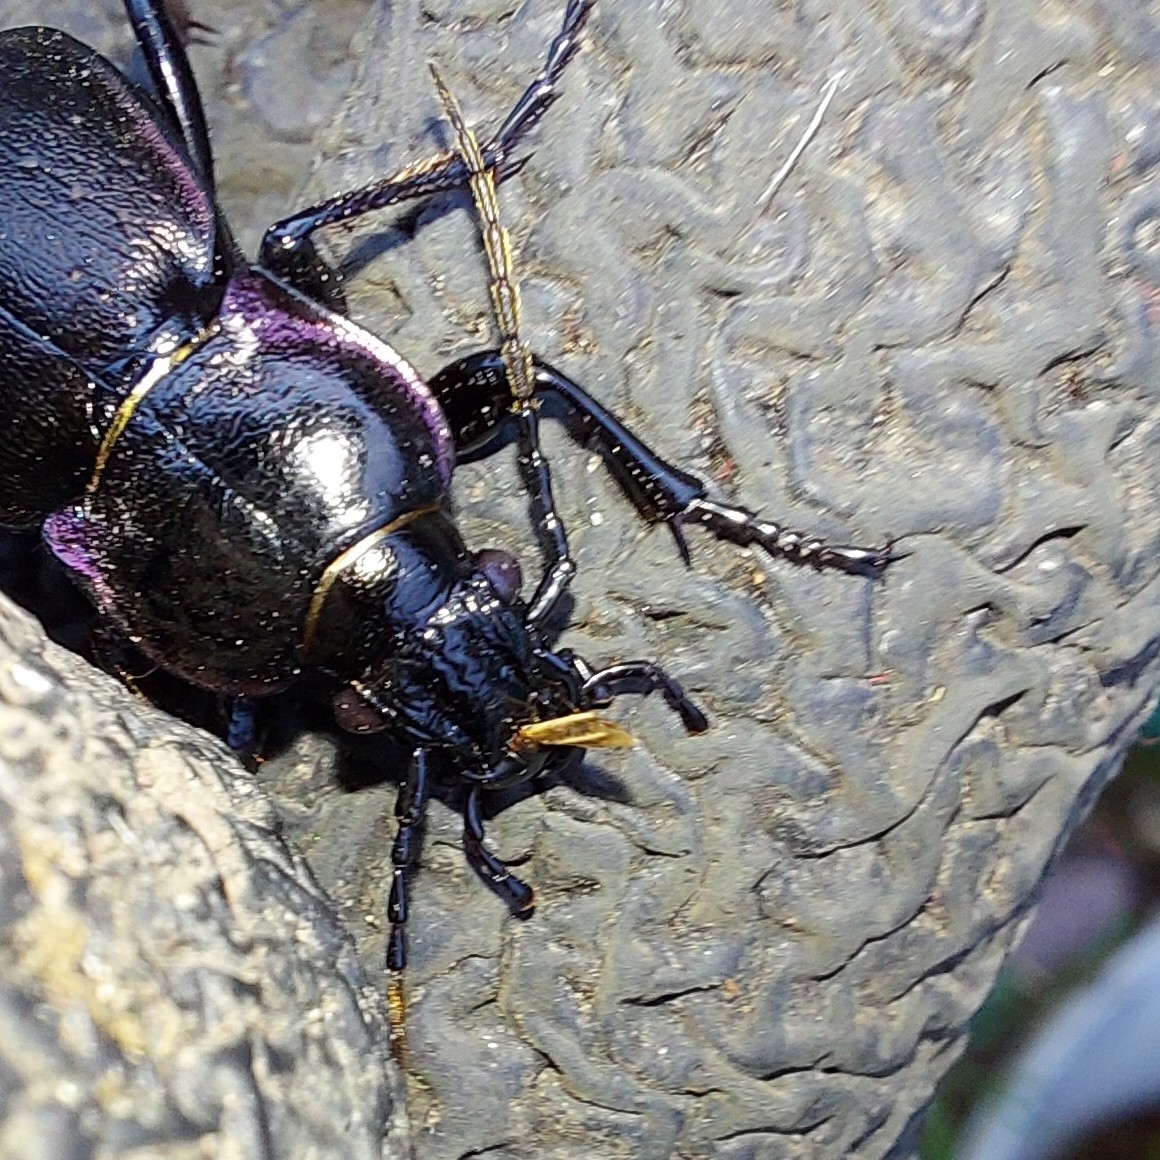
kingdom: Animalia
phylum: Arthropoda
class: Insecta
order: Coleoptera
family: Carabidae
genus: Carabus
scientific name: Carabus nemoralis
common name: European ground beetle
